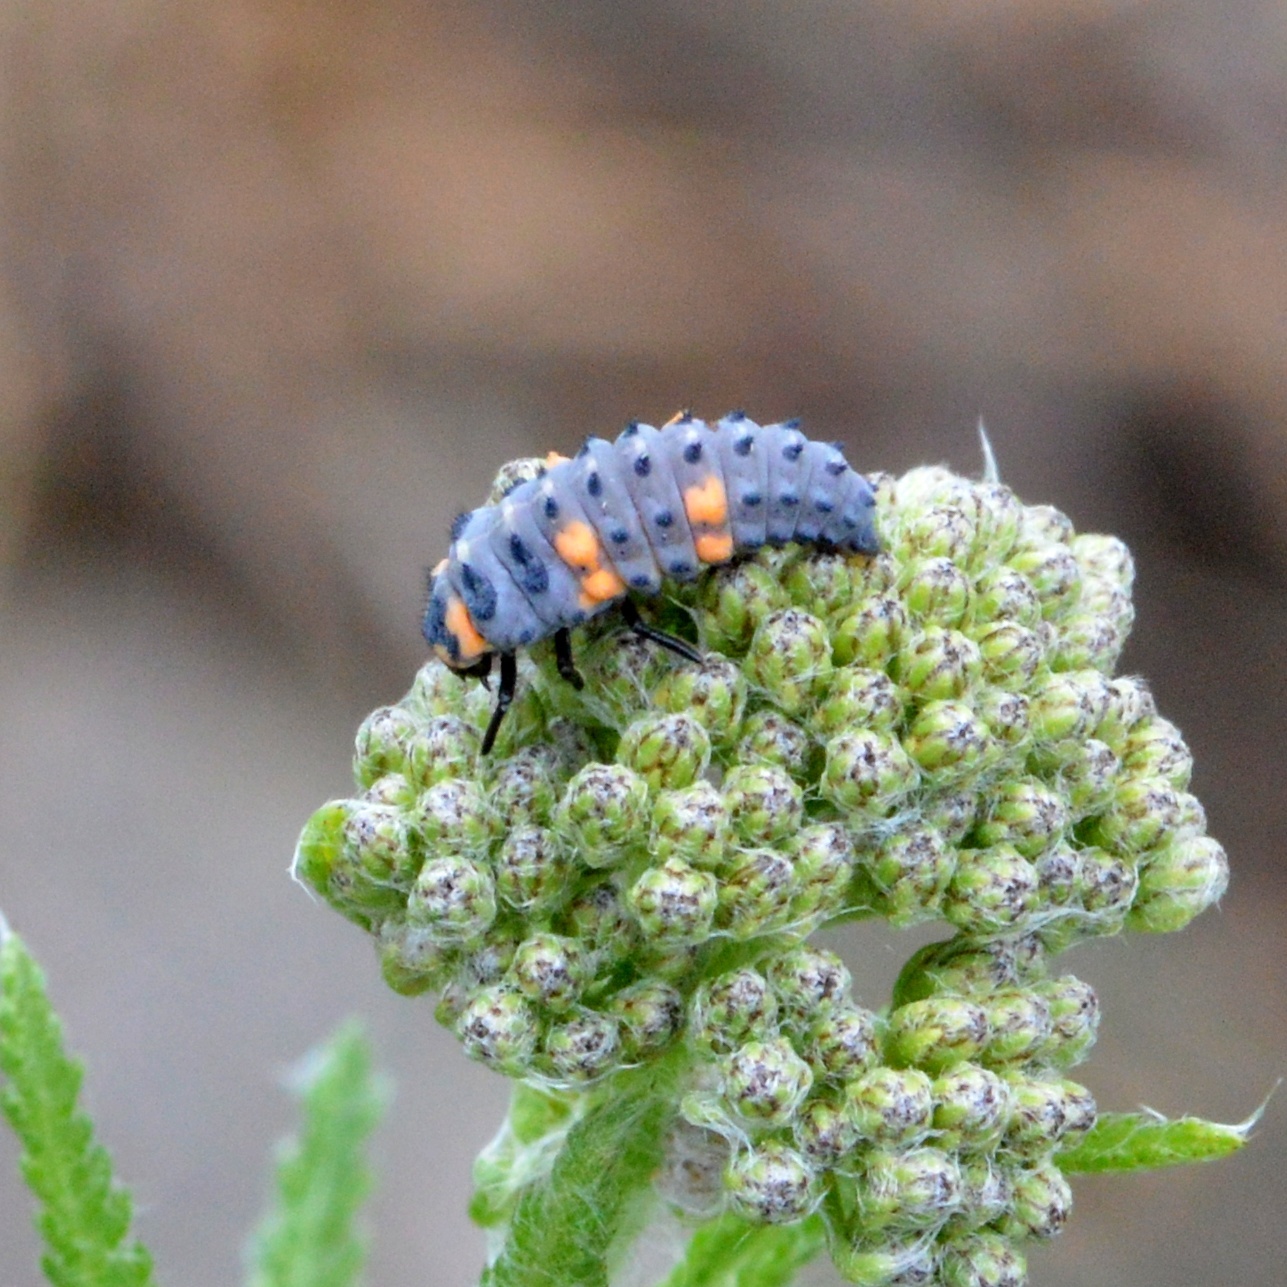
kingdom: Animalia
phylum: Arthropoda
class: Insecta
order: Coleoptera
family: Coccinellidae
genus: Coccinella
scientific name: Coccinella septempunctata
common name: Sevenspotted lady beetle
